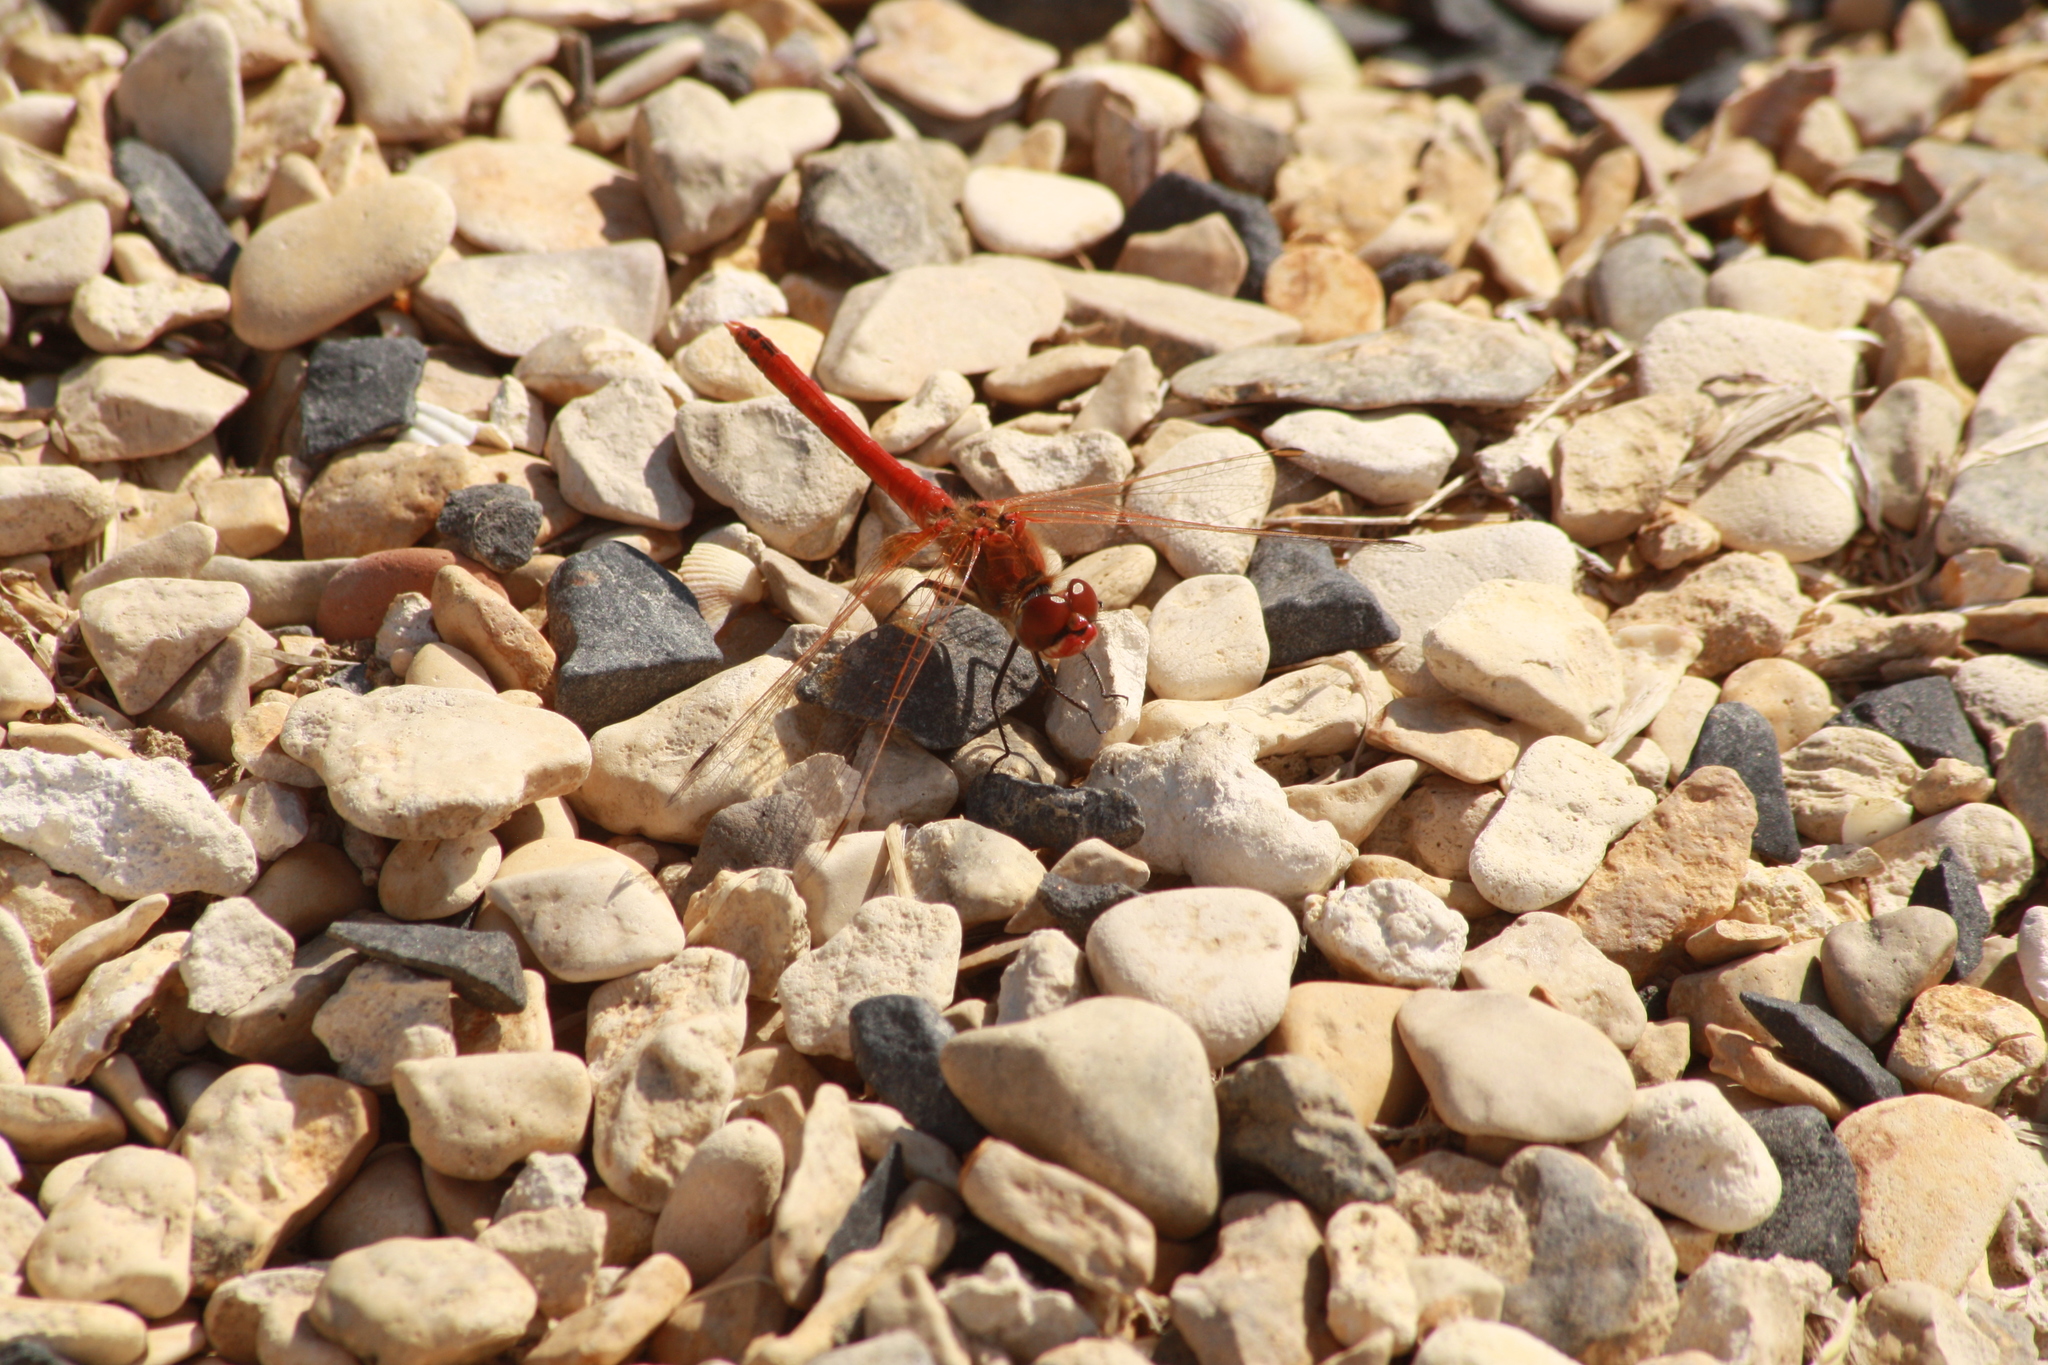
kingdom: Animalia
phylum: Arthropoda
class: Insecta
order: Odonata
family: Libellulidae
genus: Sympetrum
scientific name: Sympetrum fonscolombii
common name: Red-veined darter
